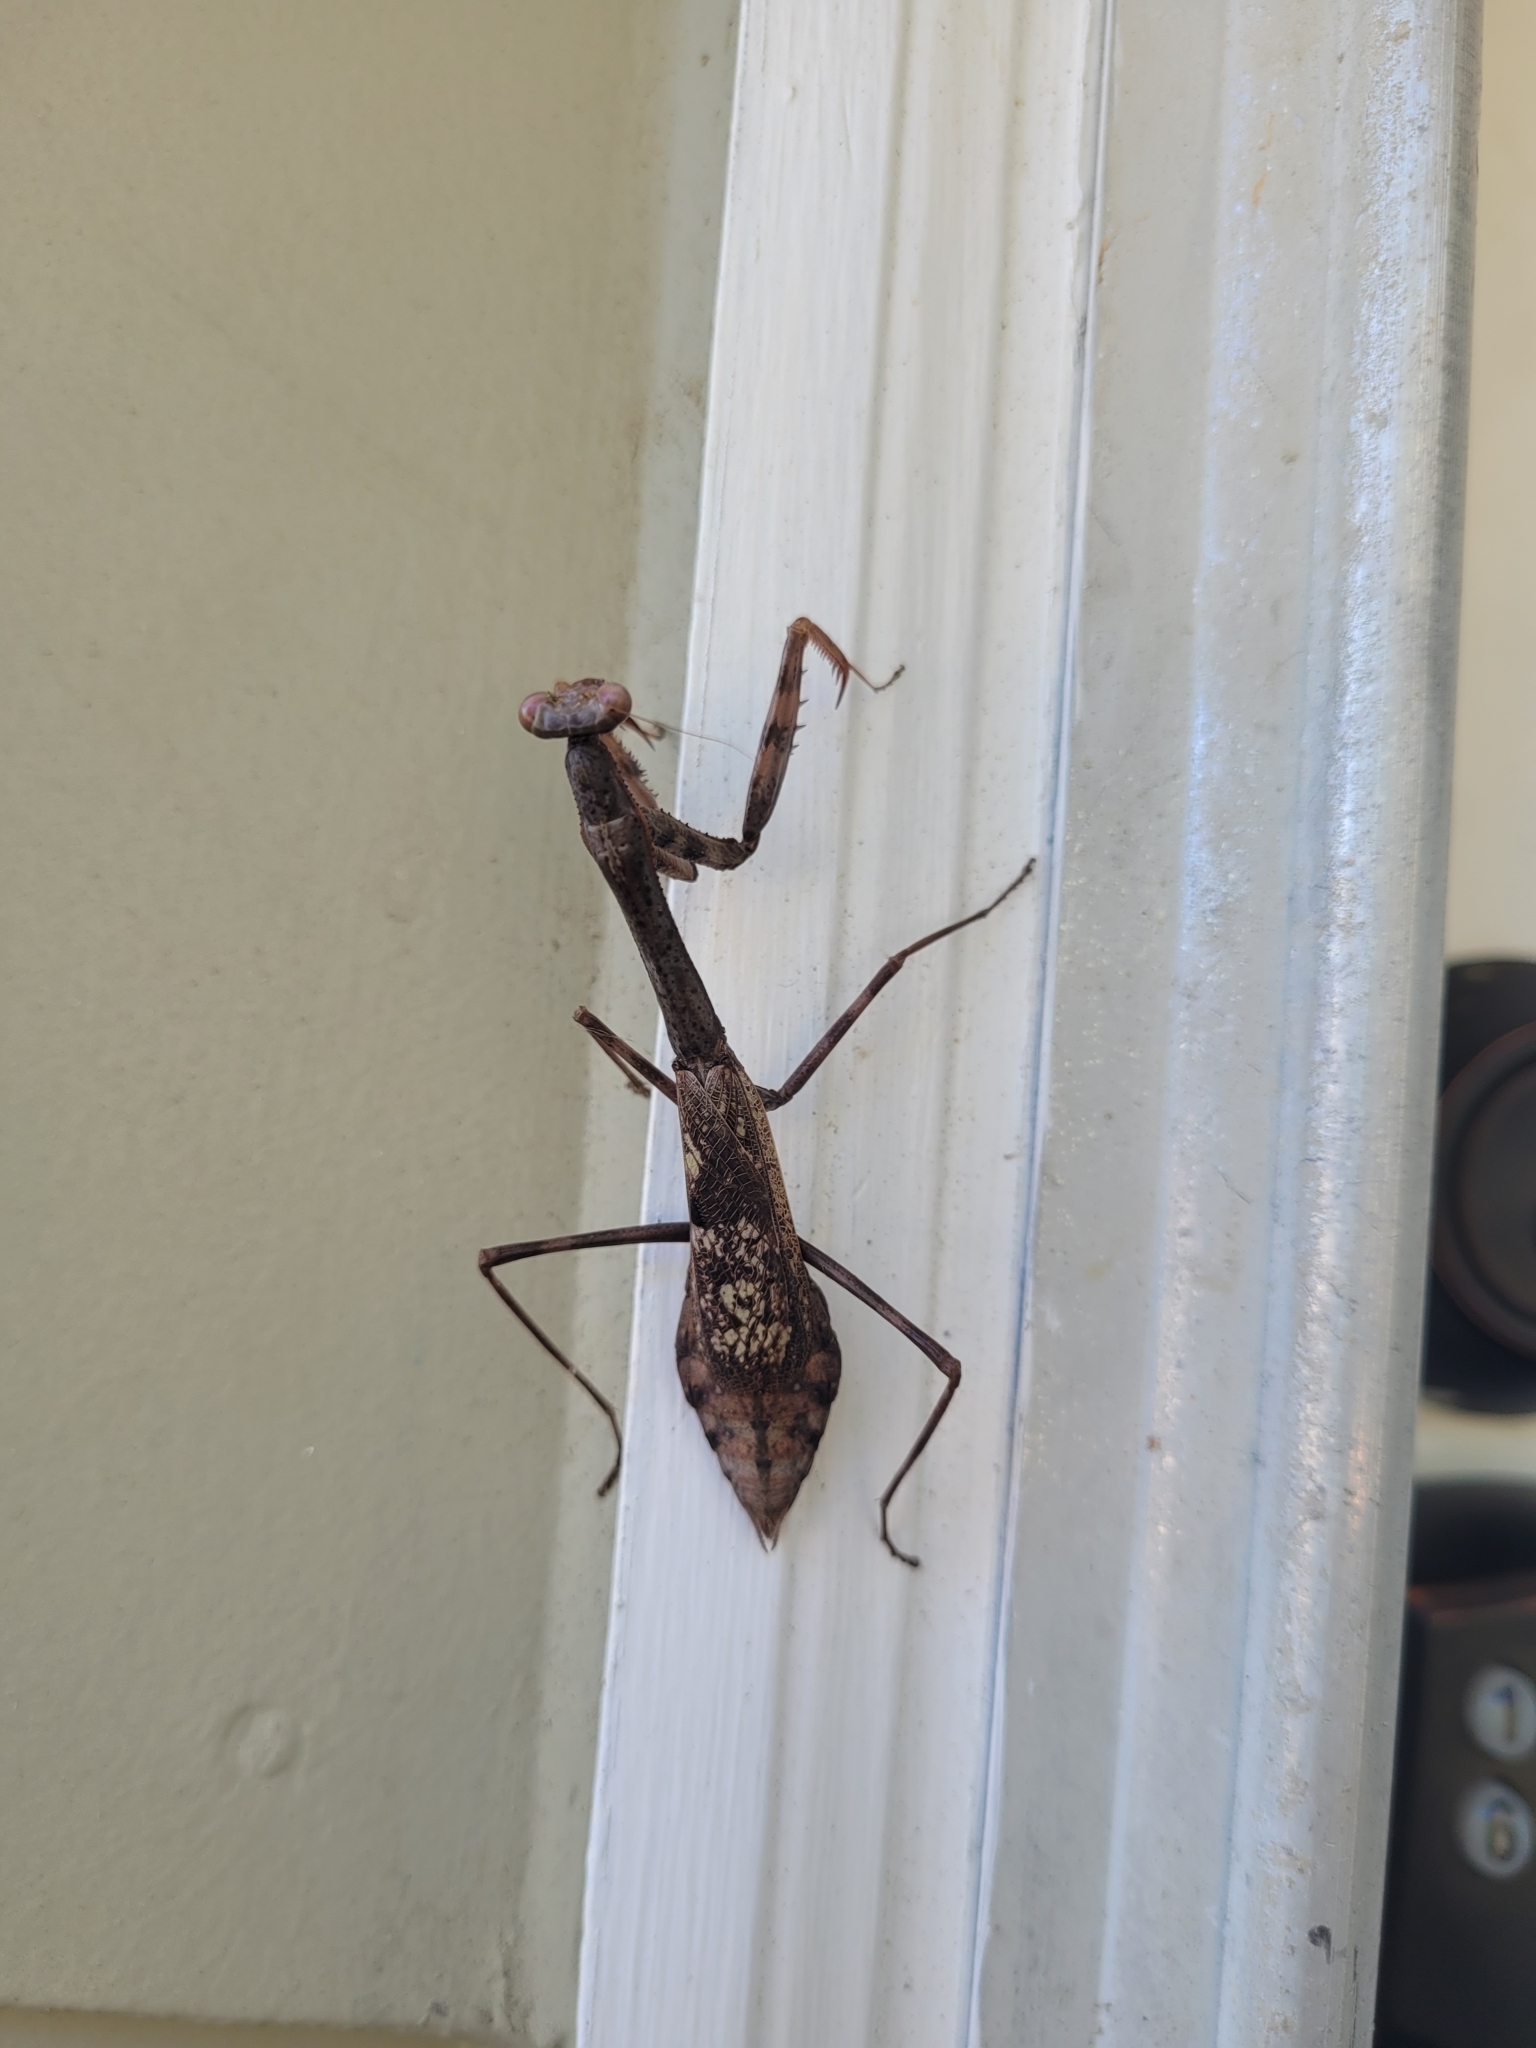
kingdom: Animalia
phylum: Arthropoda
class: Insecta
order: Mantodea
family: Mantidae
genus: Stagmomantis
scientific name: Stagmomantis carolina
